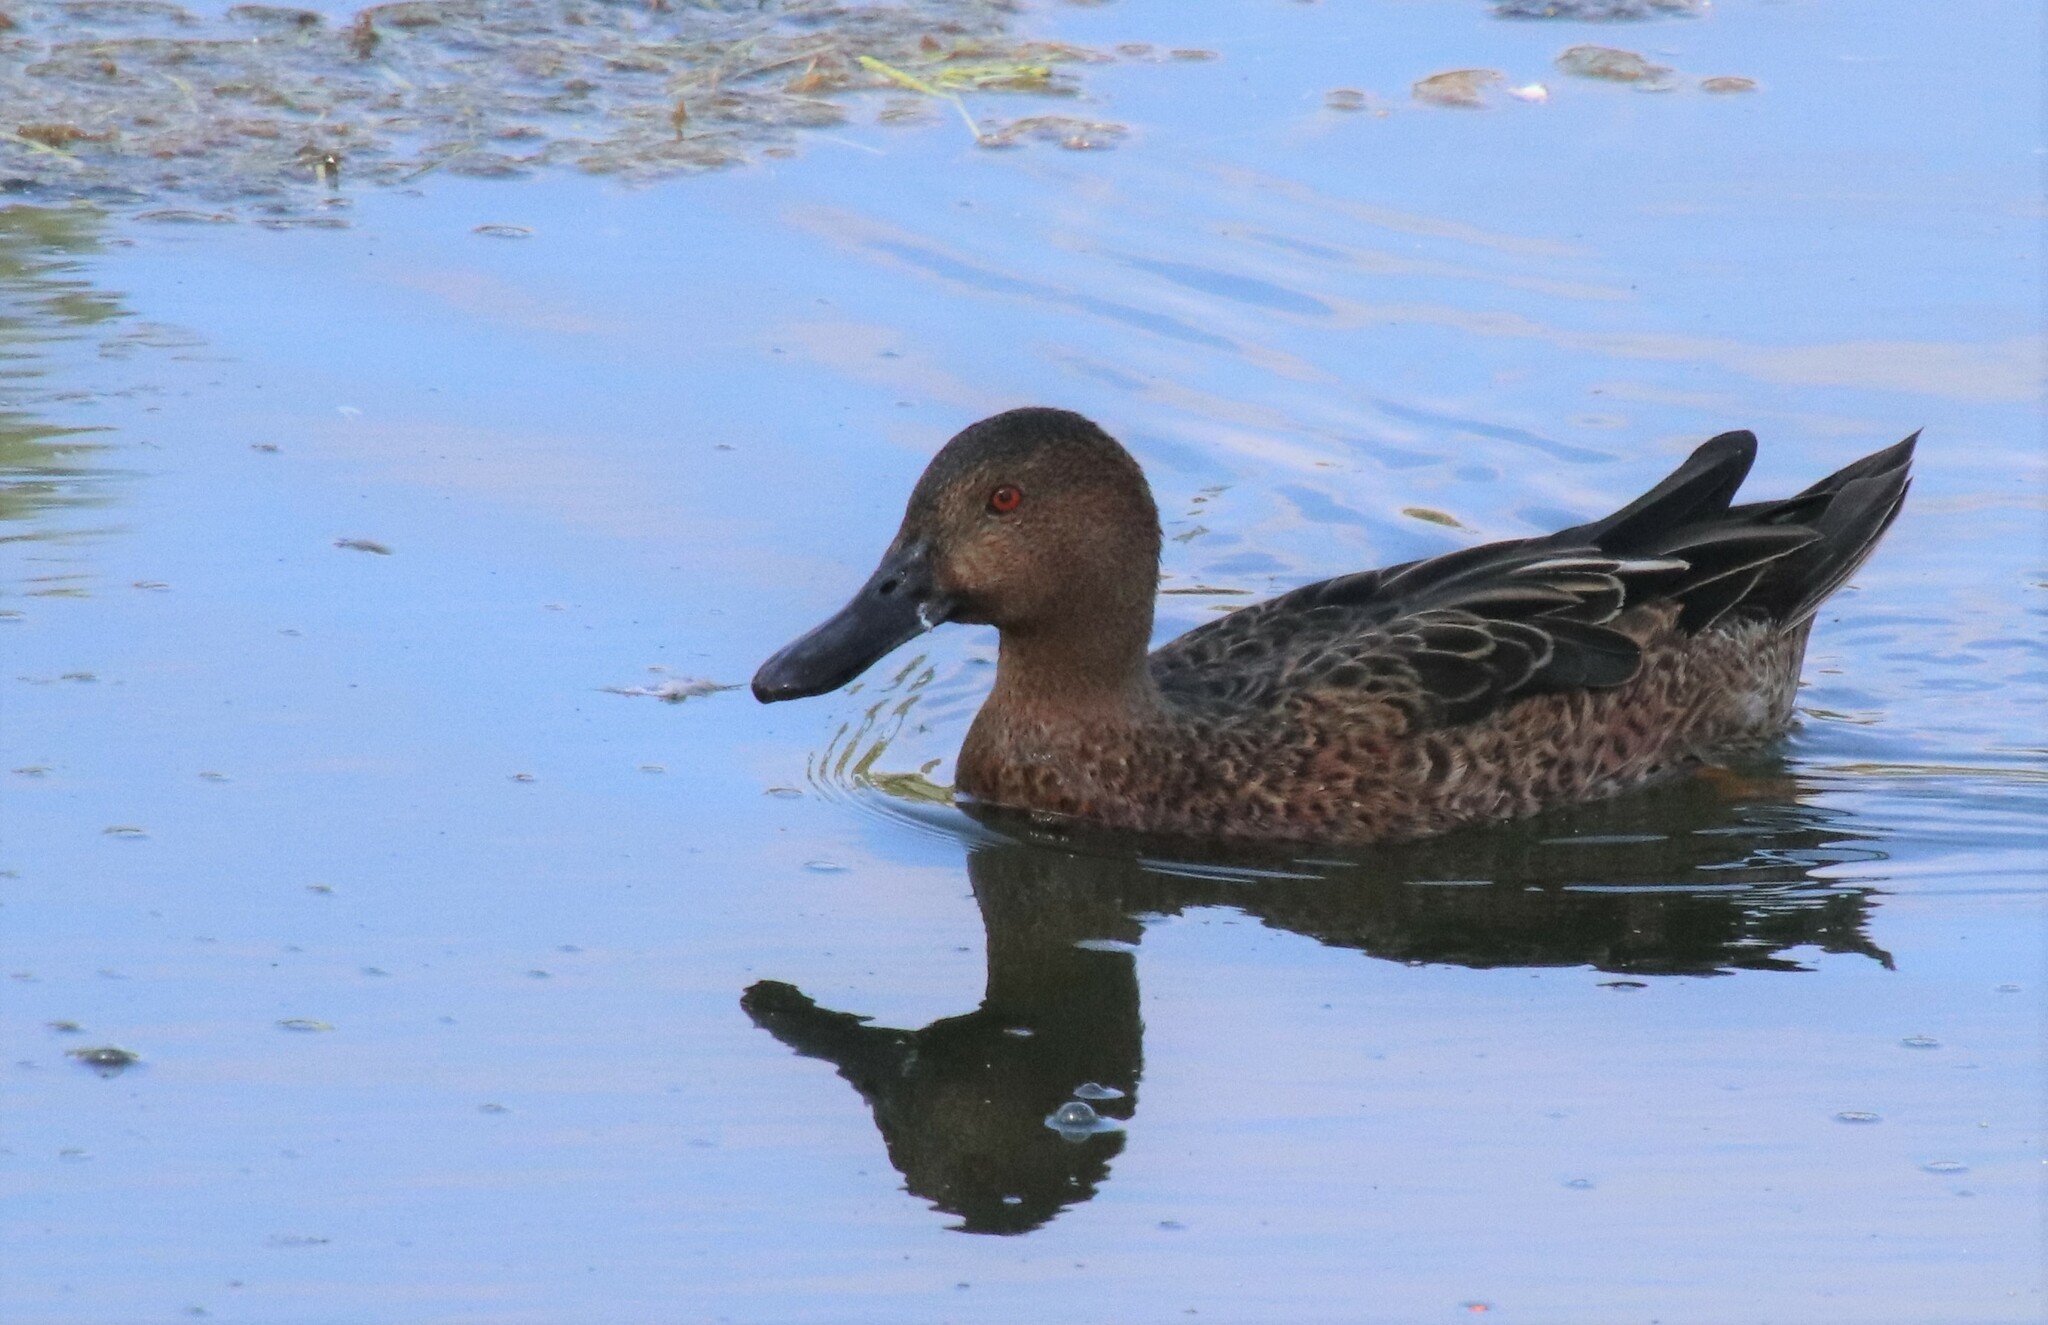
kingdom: Animalia
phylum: Chordata
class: Aves
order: Anseriformes
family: Anatidae
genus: Spatula
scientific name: Spatula cyanoptera
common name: Cinnamon teal
